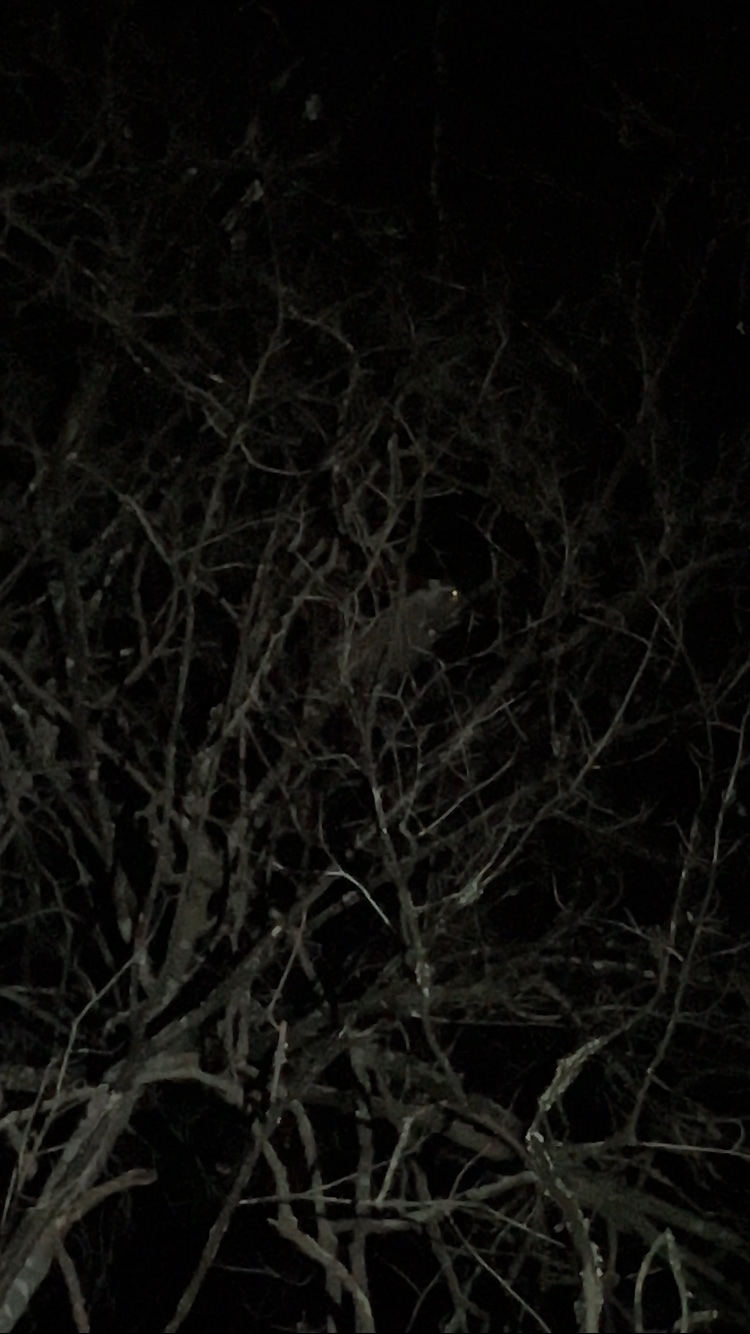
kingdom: Animalia
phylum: Chordata
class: Mammalia
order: Carnivora
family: Procyonidae
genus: Procyon
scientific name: Procyon lotor
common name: Raccoon
